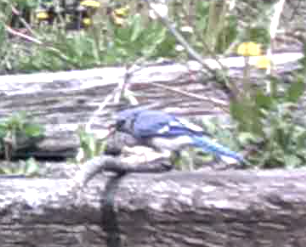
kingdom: Animalia
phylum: Chordata
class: Aves
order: Passeriformes
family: Corvidae
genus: Cyanocitta
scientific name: Cyanocitta cristata
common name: Blue jay
